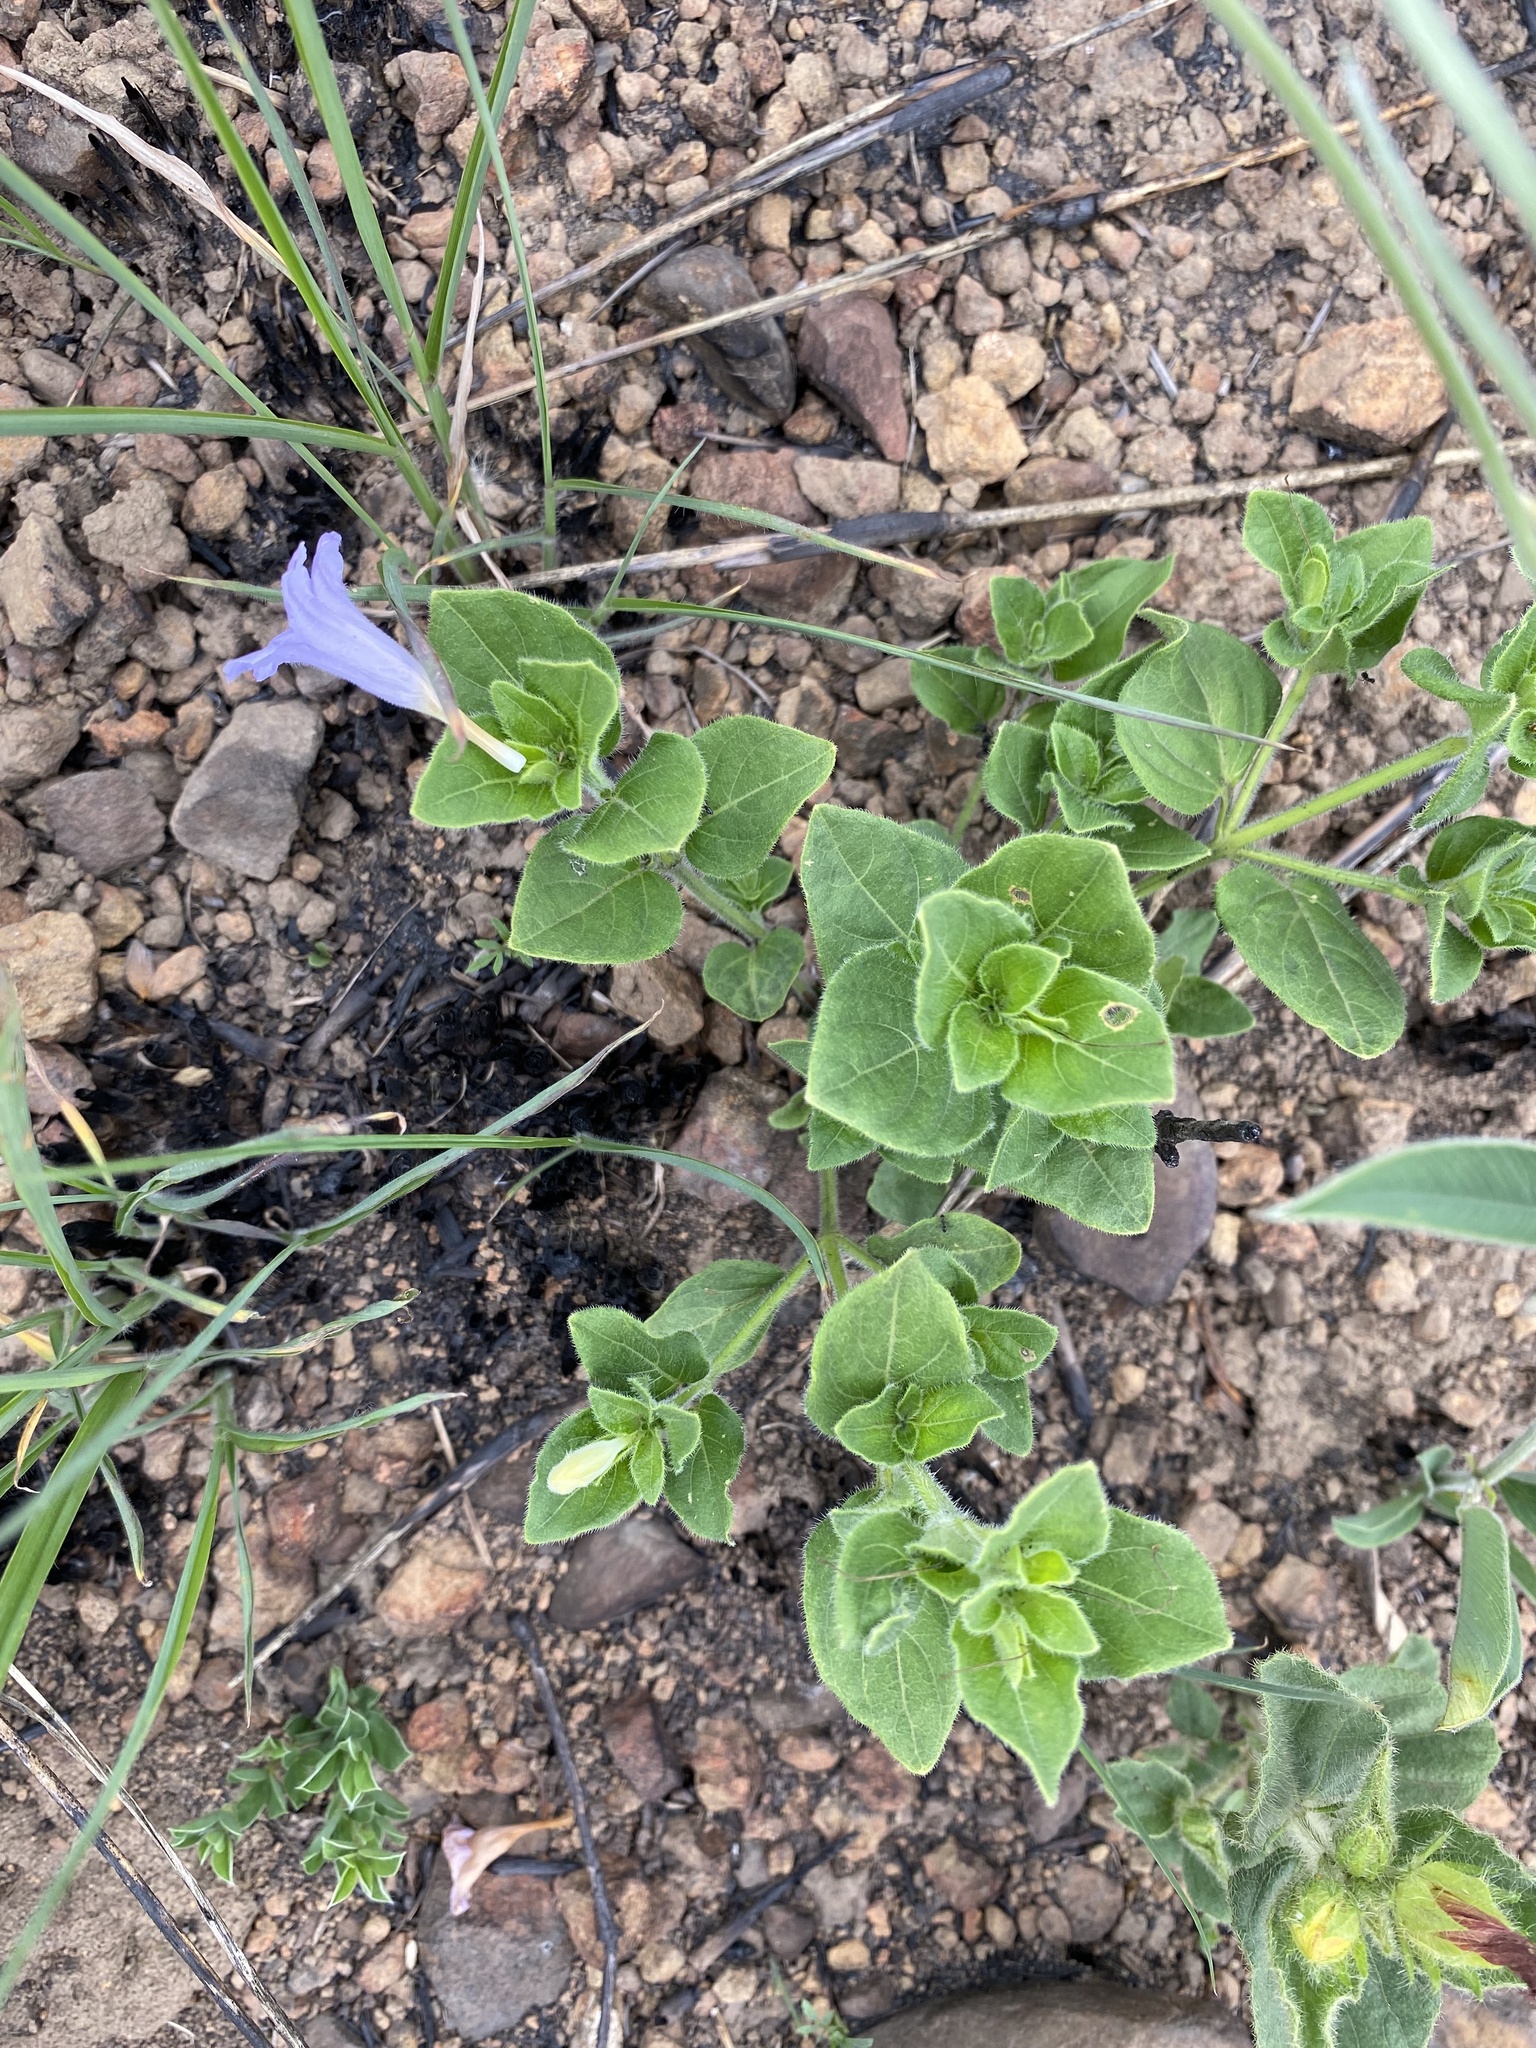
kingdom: Plantae
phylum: Tracheophyta
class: Magnoliopsida
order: Lamiales
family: Acanthaceae
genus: Ruellia
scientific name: Ruellia cordata
